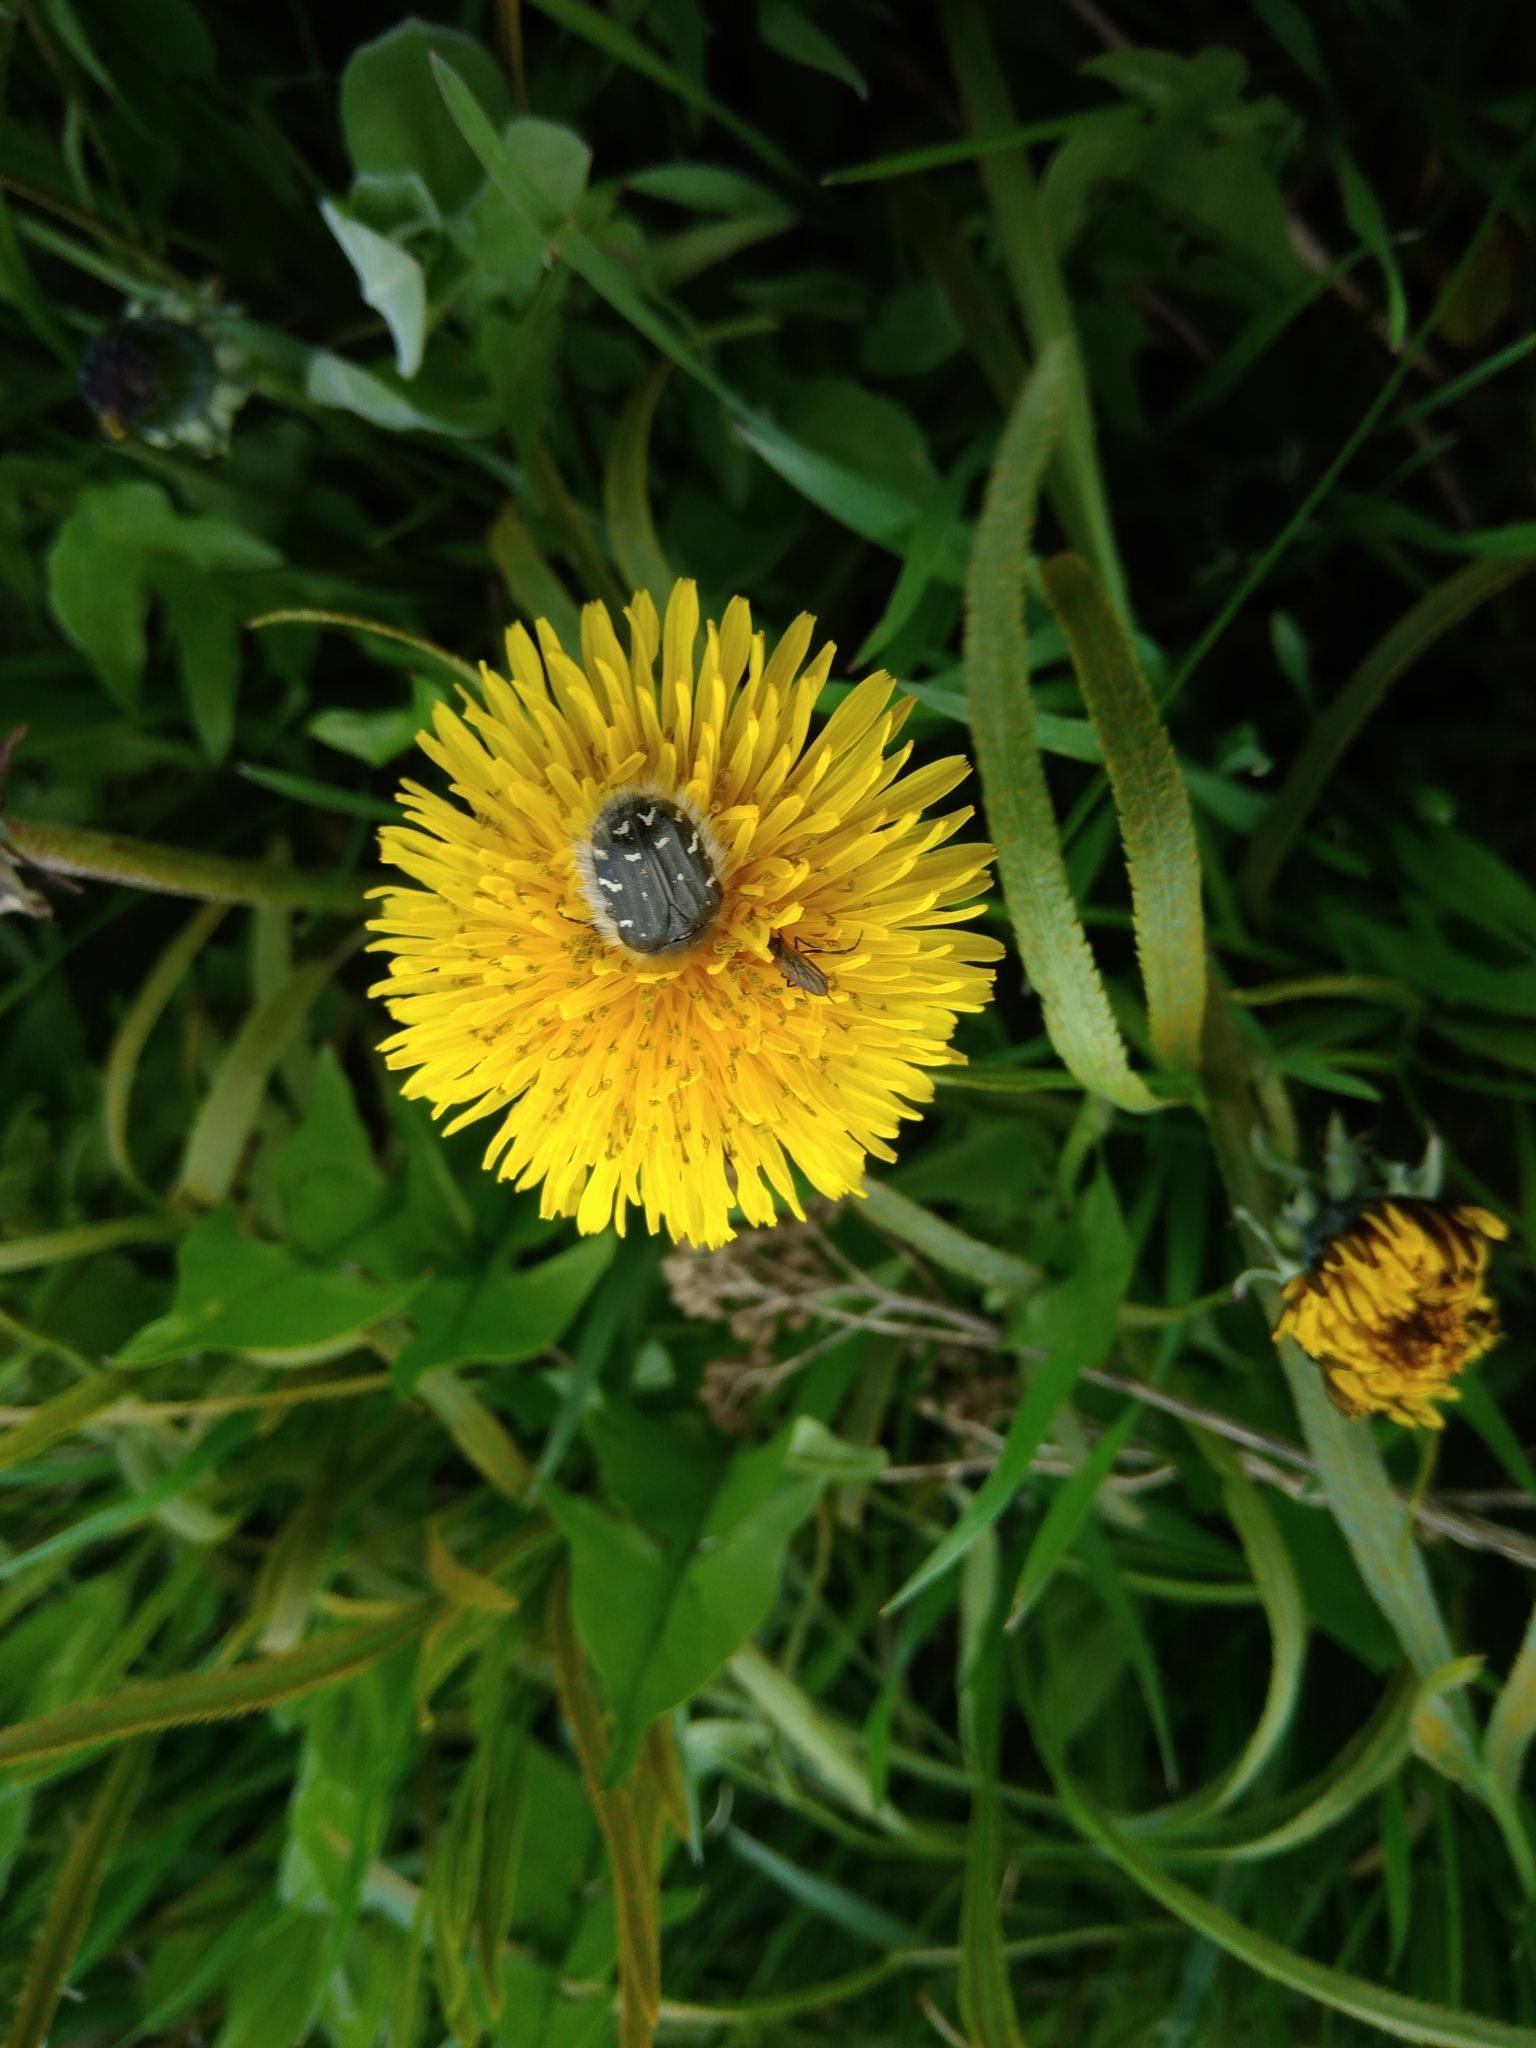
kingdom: Animalia
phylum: Arthropoda
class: Insecta
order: Coleoptera
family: Scarabaeidae
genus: Tropinota
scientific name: Tropinota hirta
